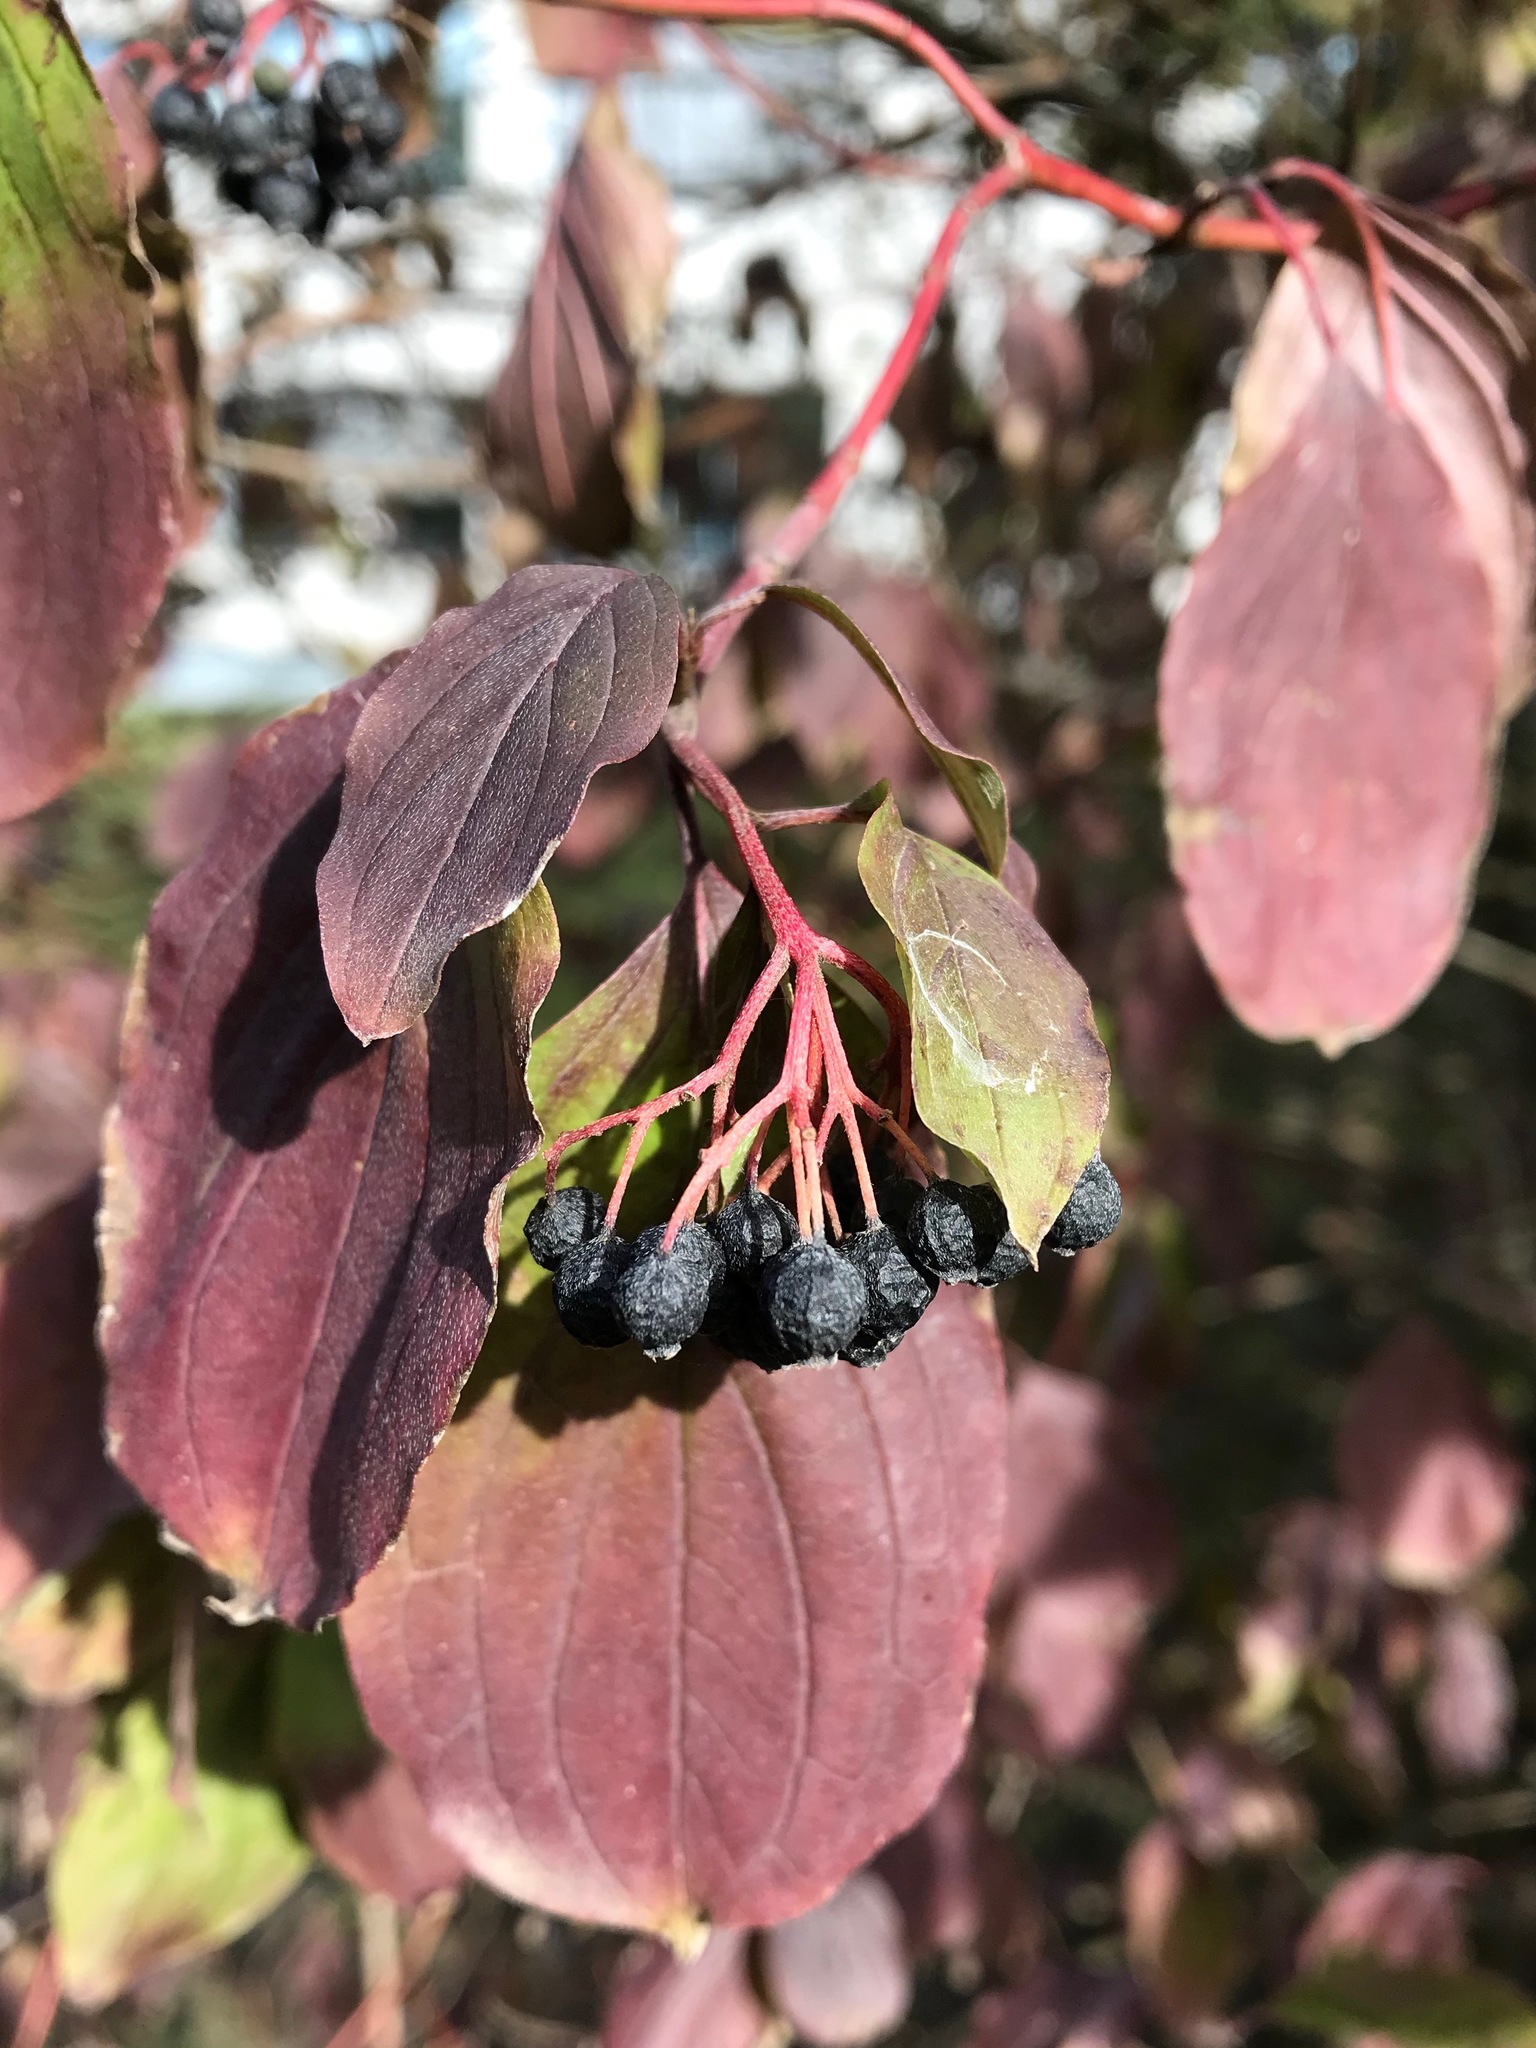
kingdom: Plantae
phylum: Tracheophyta
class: Magnoliopsida
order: Cornales
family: Cornaceae
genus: Cornus
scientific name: Cornus sanguinea
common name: Dogwood
